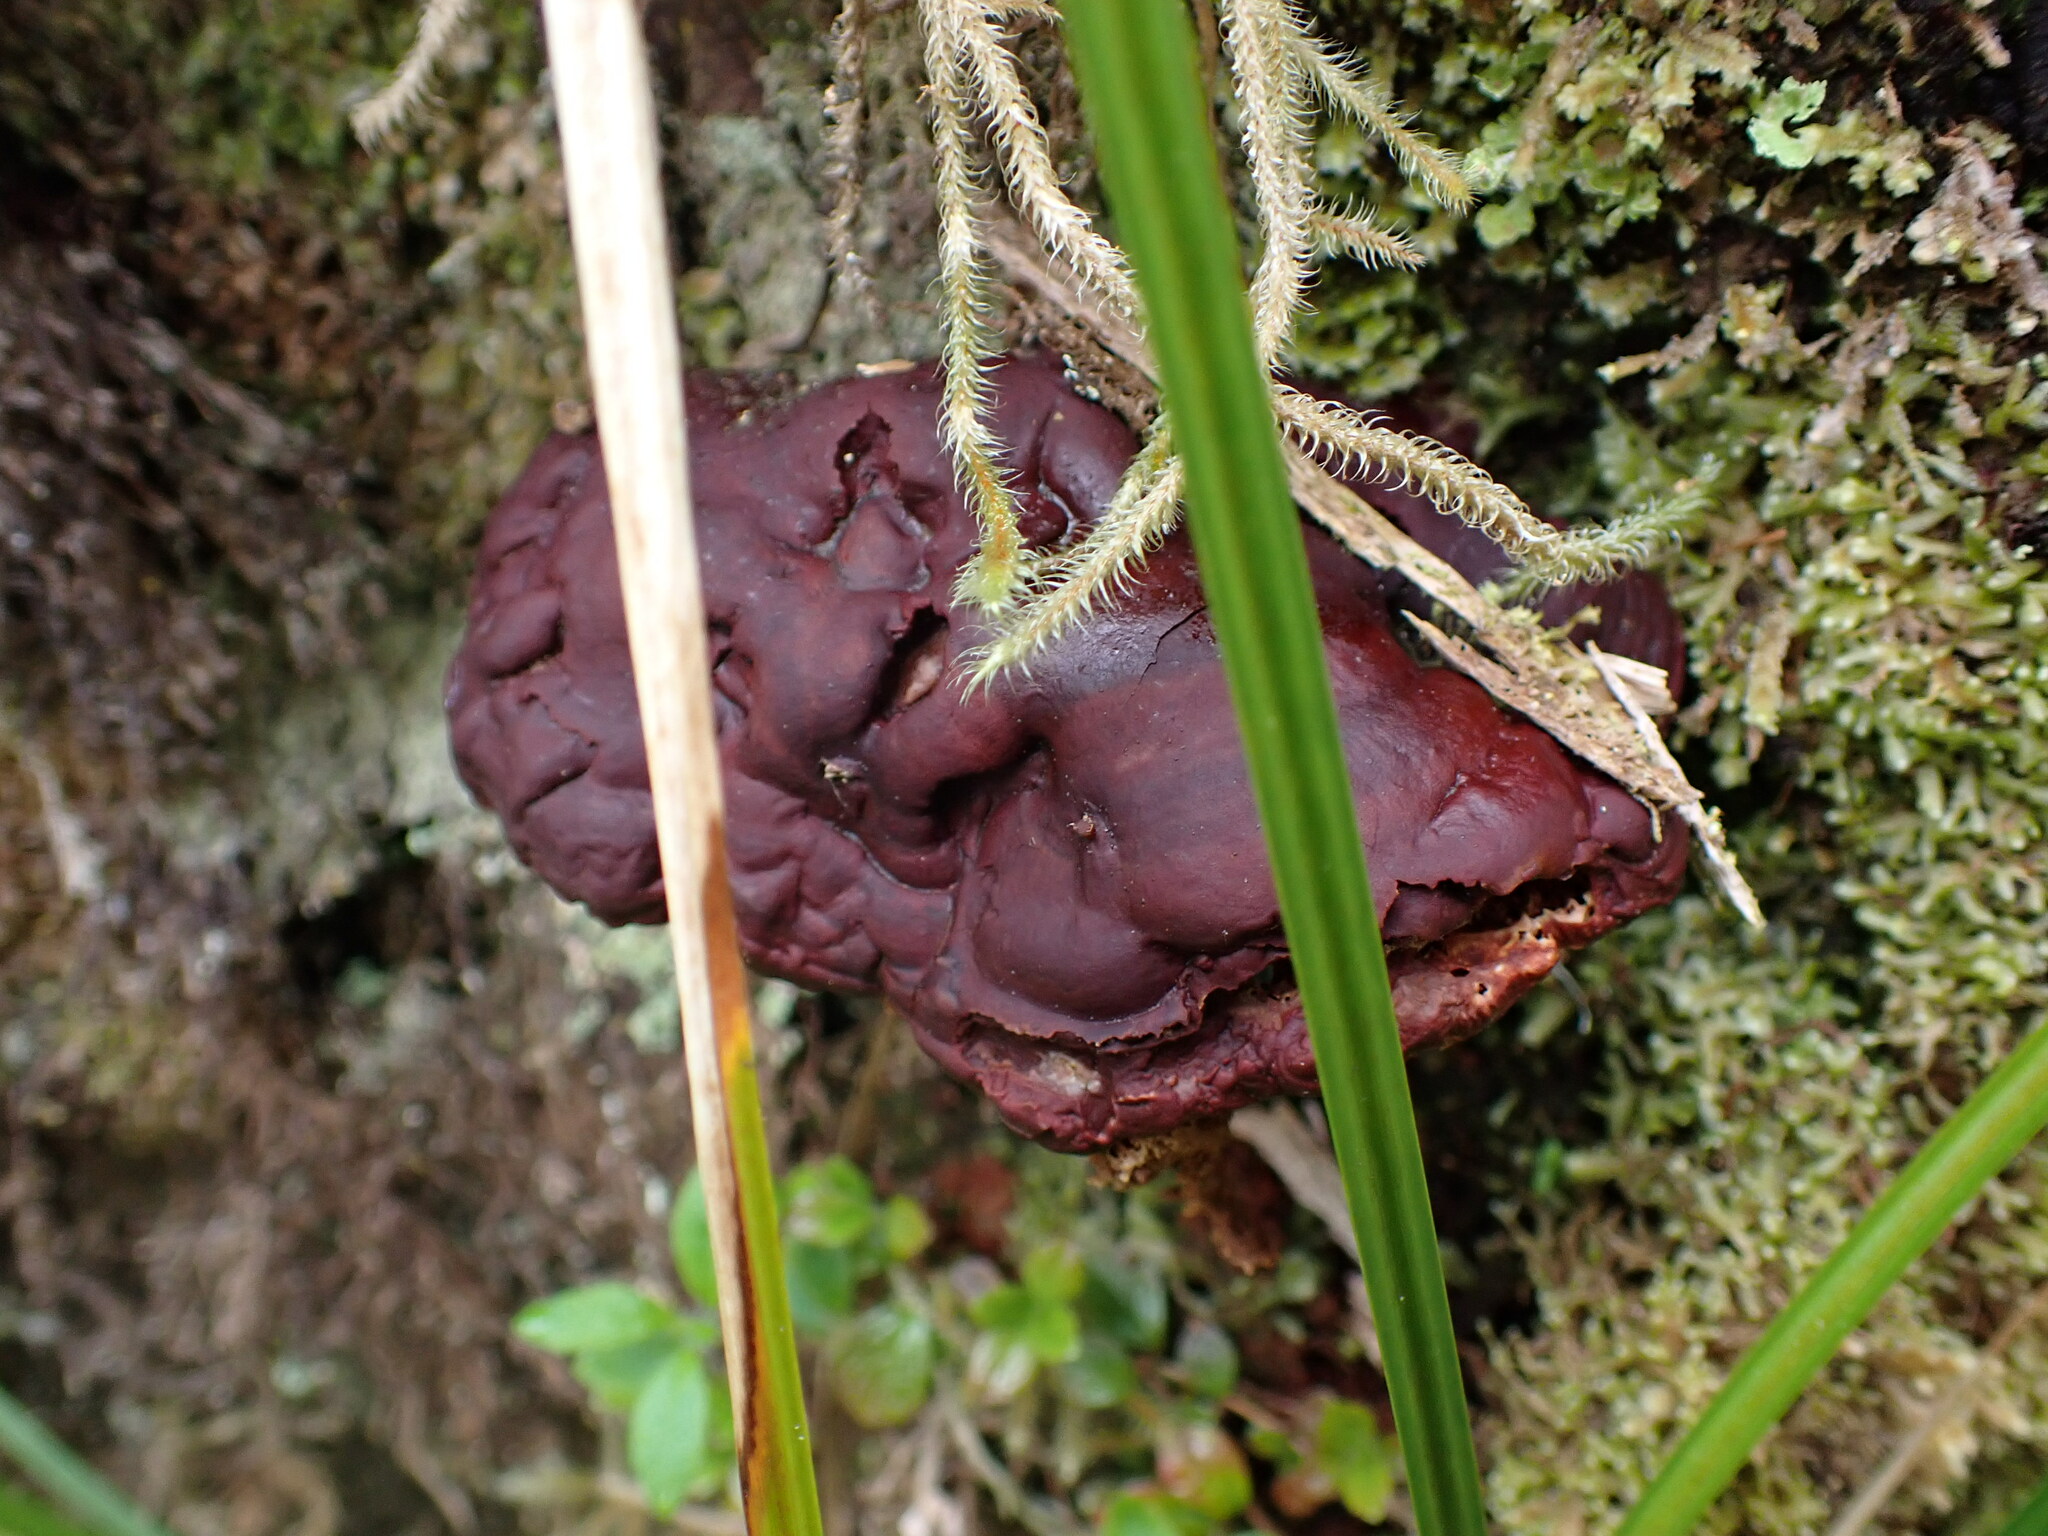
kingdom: Fungi
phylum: Basidiomycota
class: Agaricomycetes
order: Polyporales
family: Polyporaceae
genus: Ganoderma
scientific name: Ganoderma oregonense
